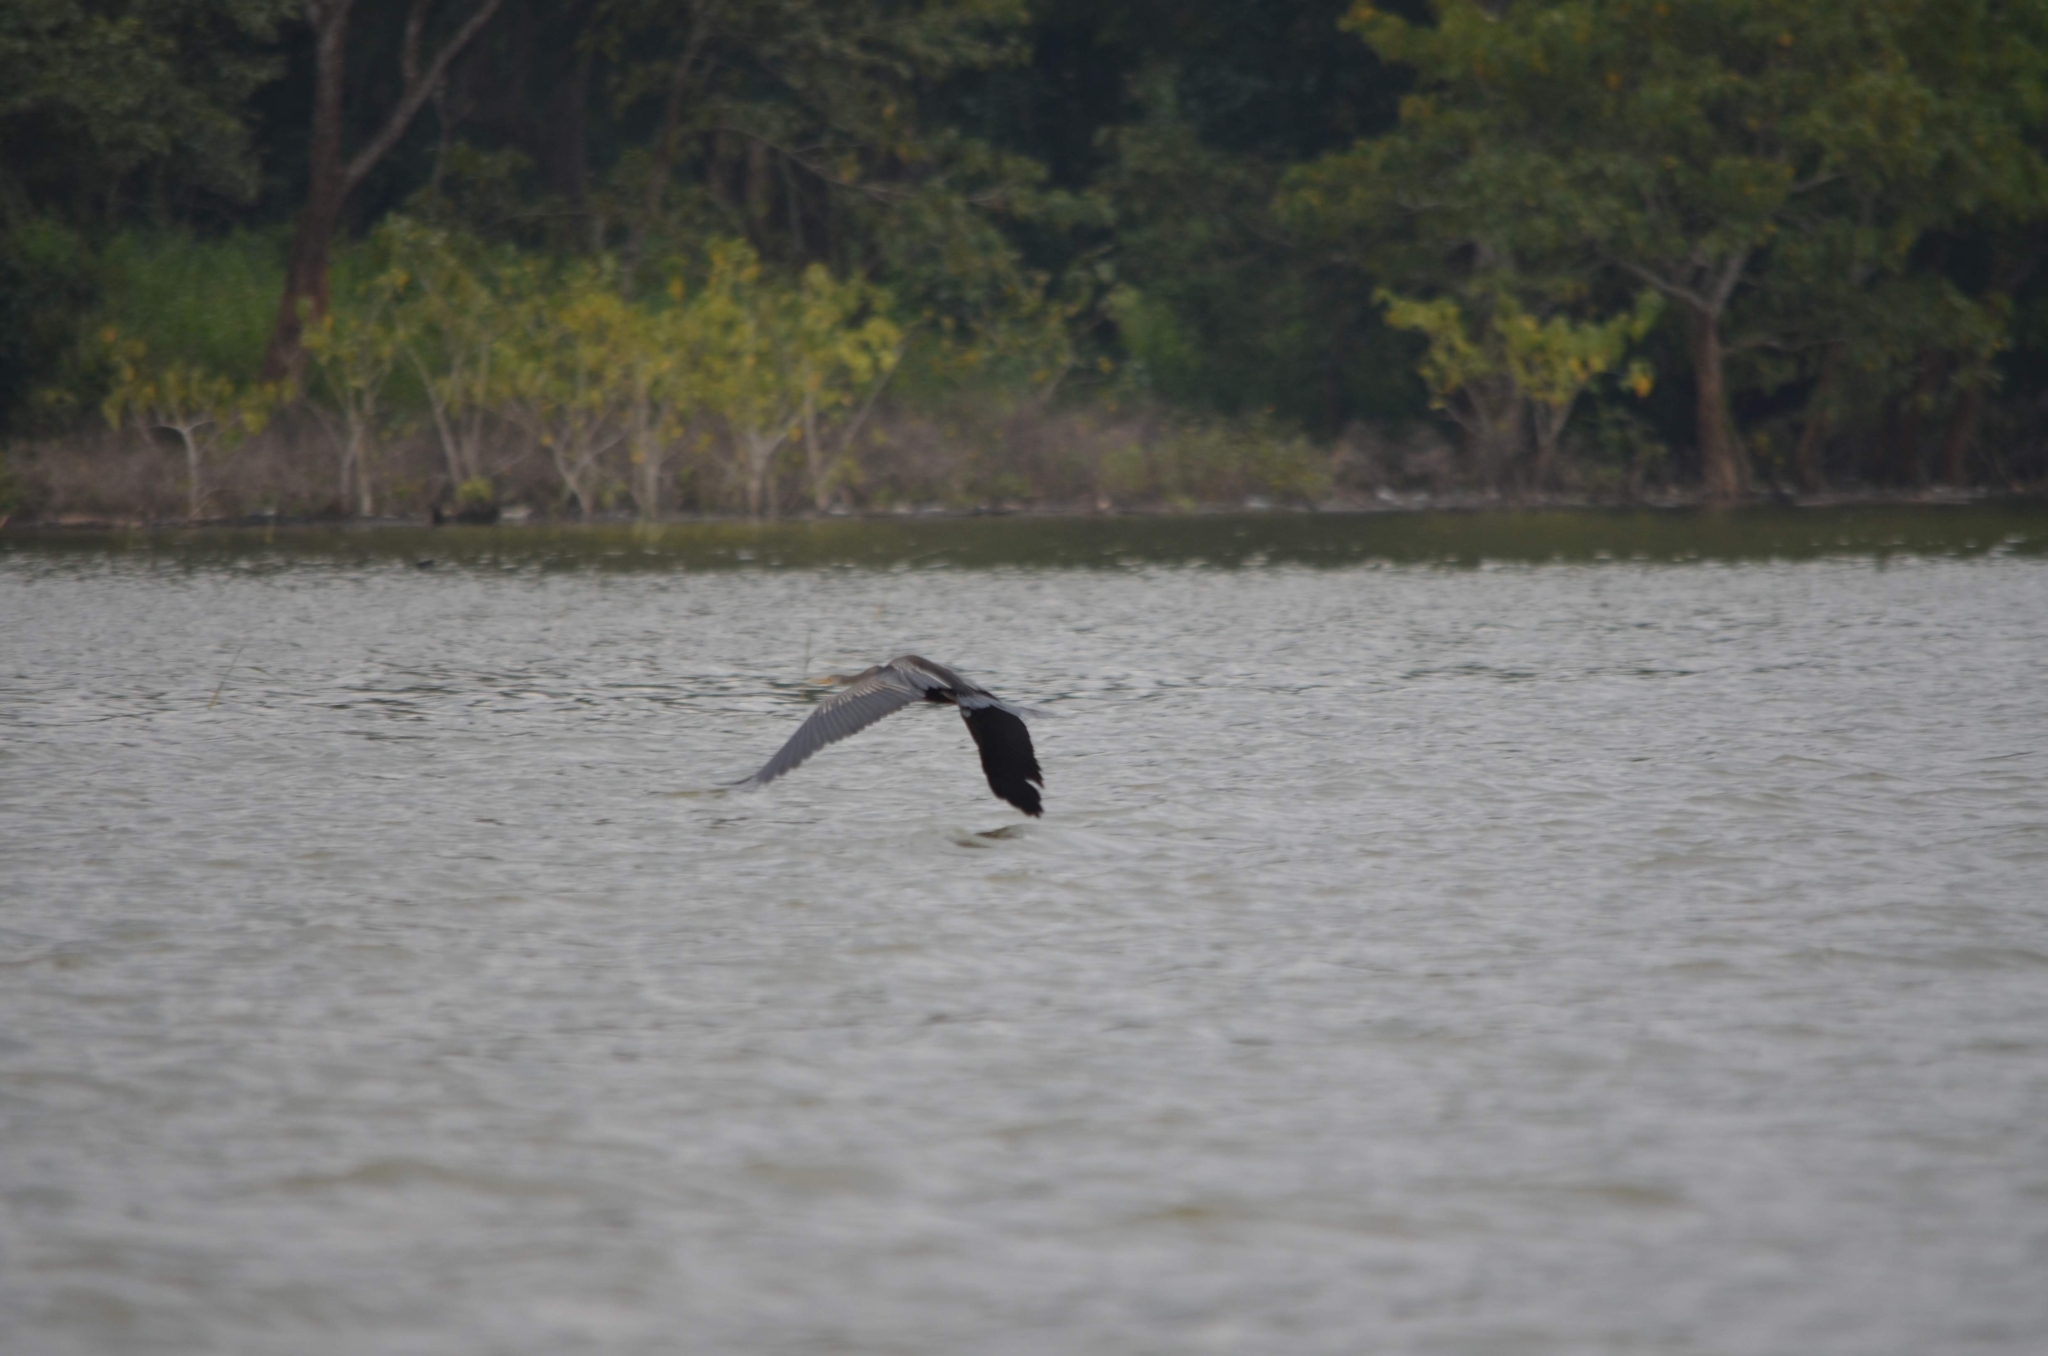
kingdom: Animalia
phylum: Chordata
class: Aves
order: Suliformes
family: Anhingidae
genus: Anhinga
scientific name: Anhinga melanogaster
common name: Oriental darter
